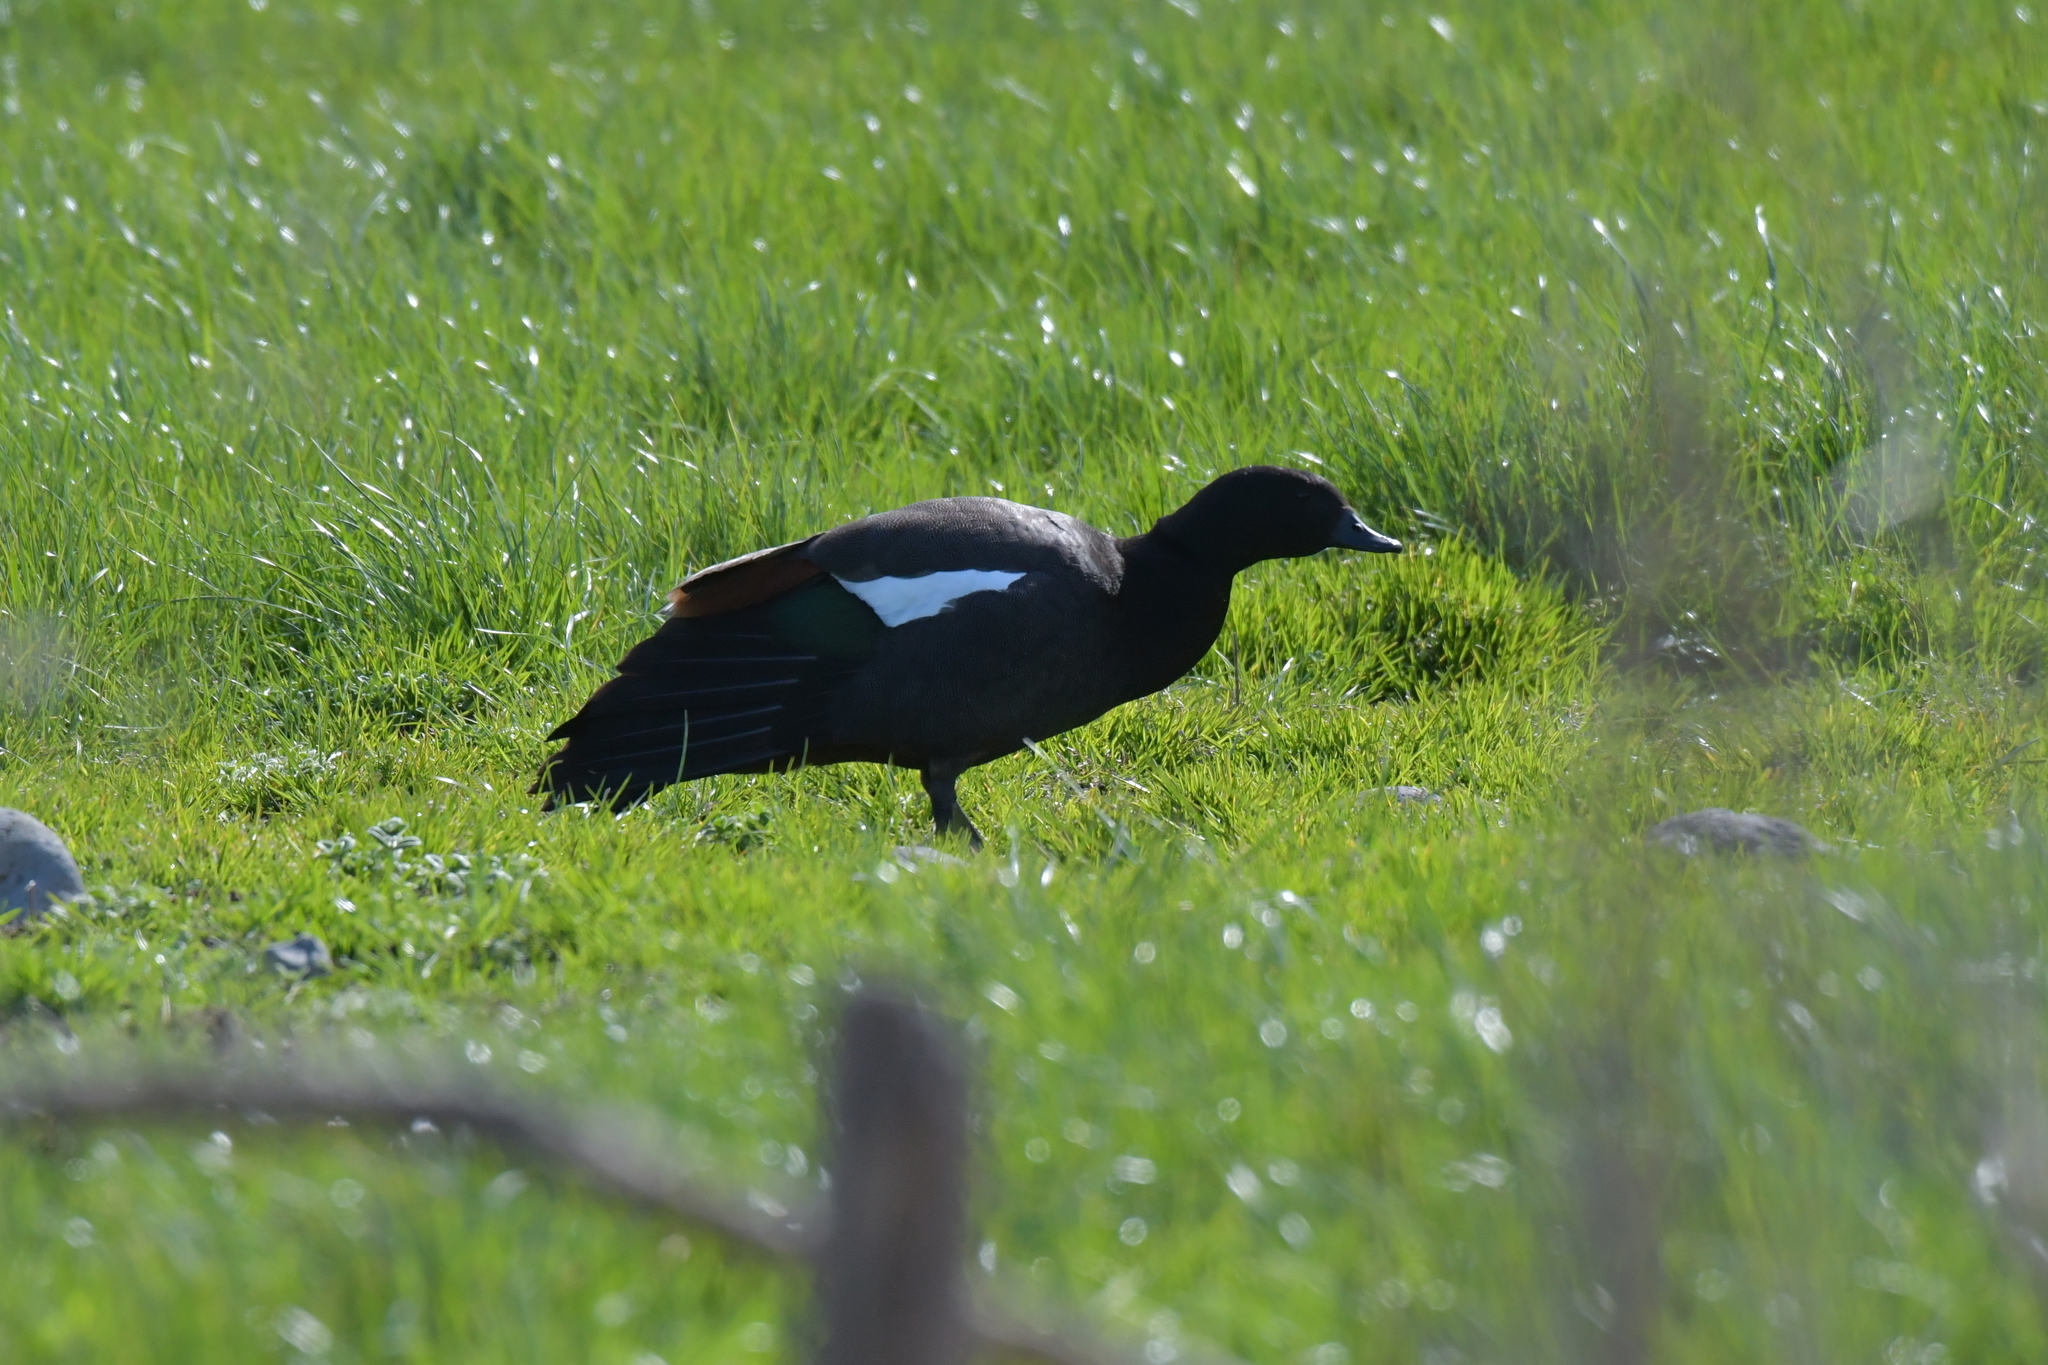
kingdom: Animalia
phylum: Chordata
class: Aves
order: Anseriformes
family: Anatidae
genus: Tadorna
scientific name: Tadorna variegata
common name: Paradise shelduck
